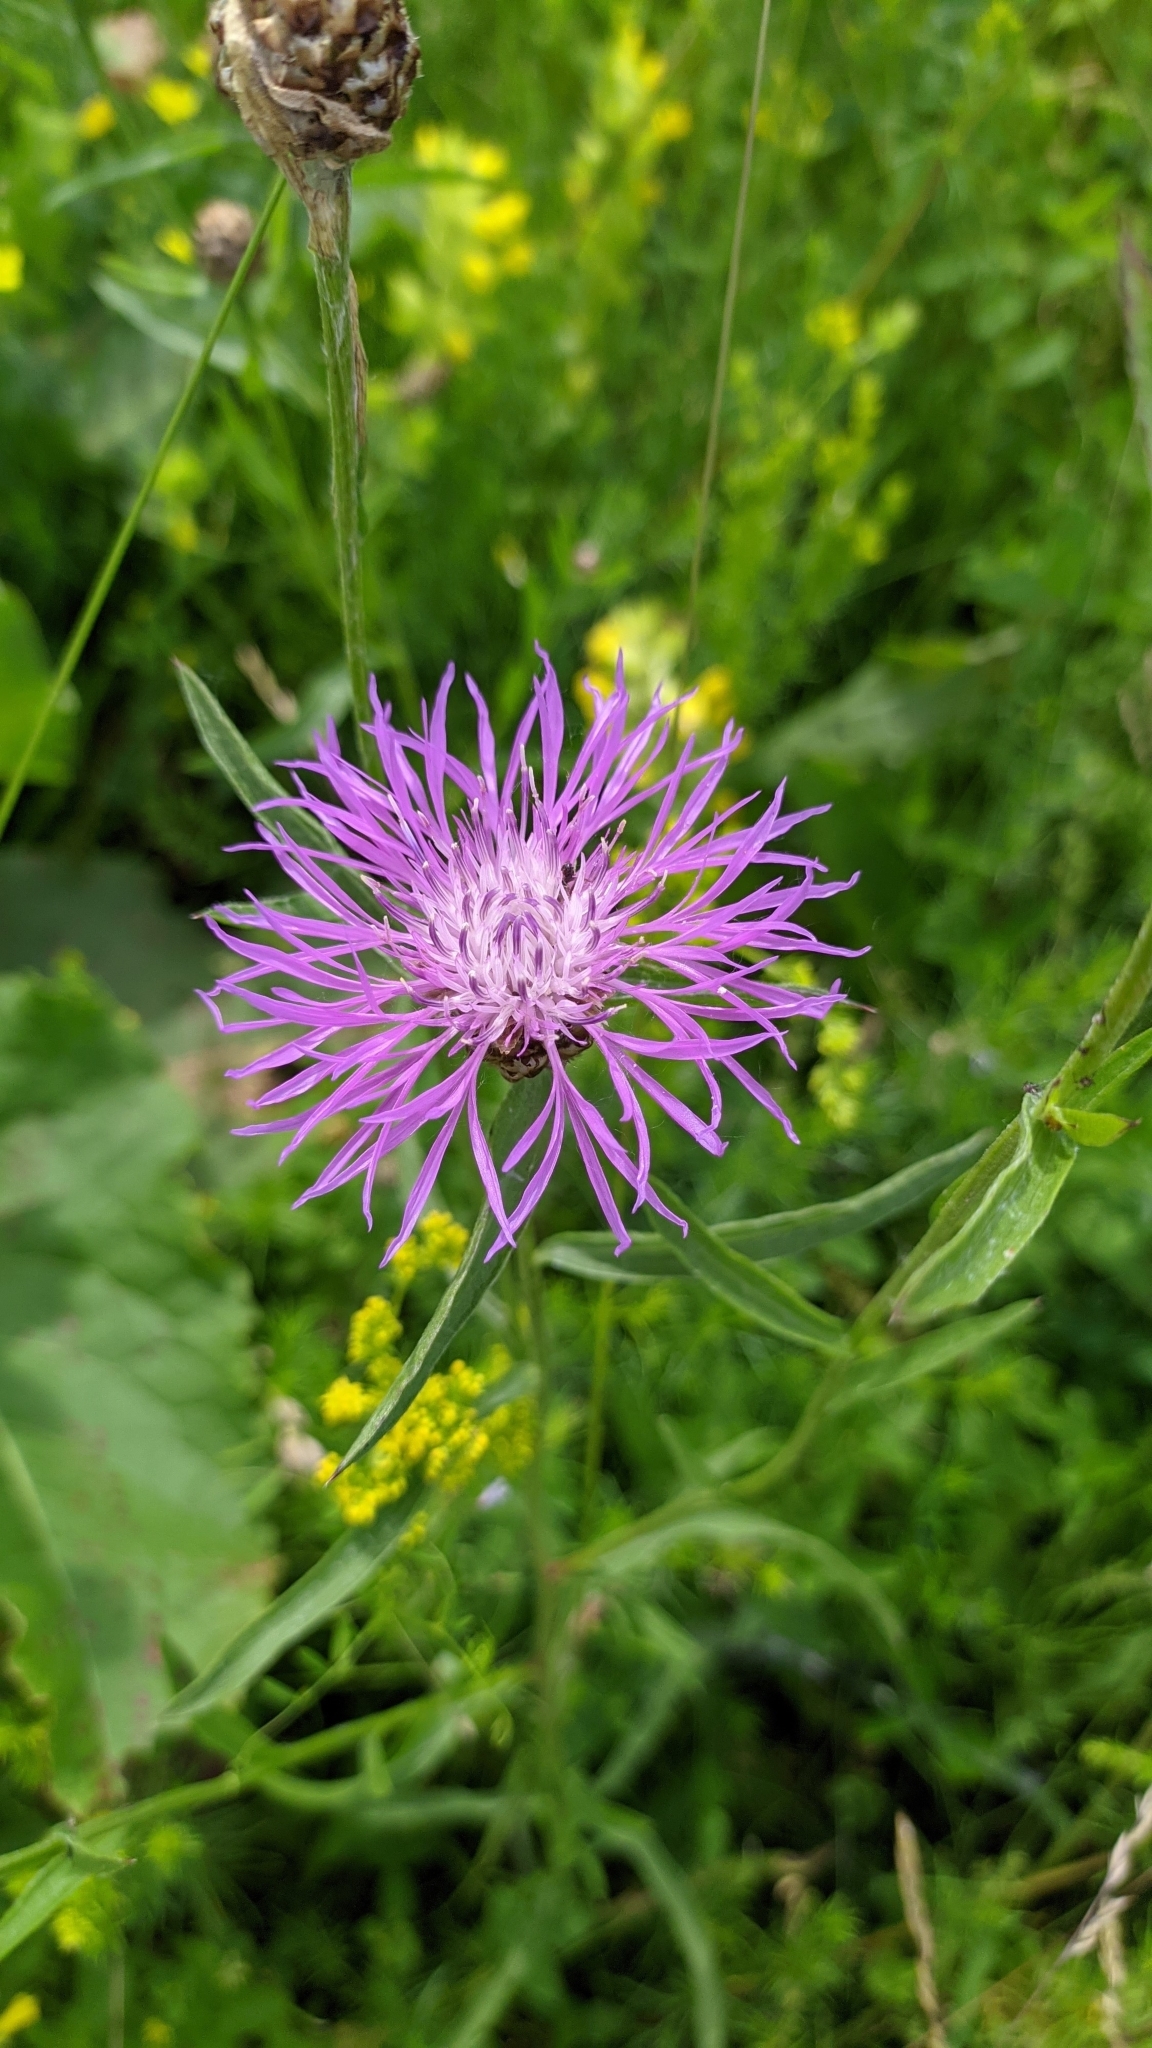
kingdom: Plantae
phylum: Tracheophyta
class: Magnoliopsida
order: Asterales
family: Asteraceae
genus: Centaurea
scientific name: Centaurea jacea
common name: Brown knapweed
